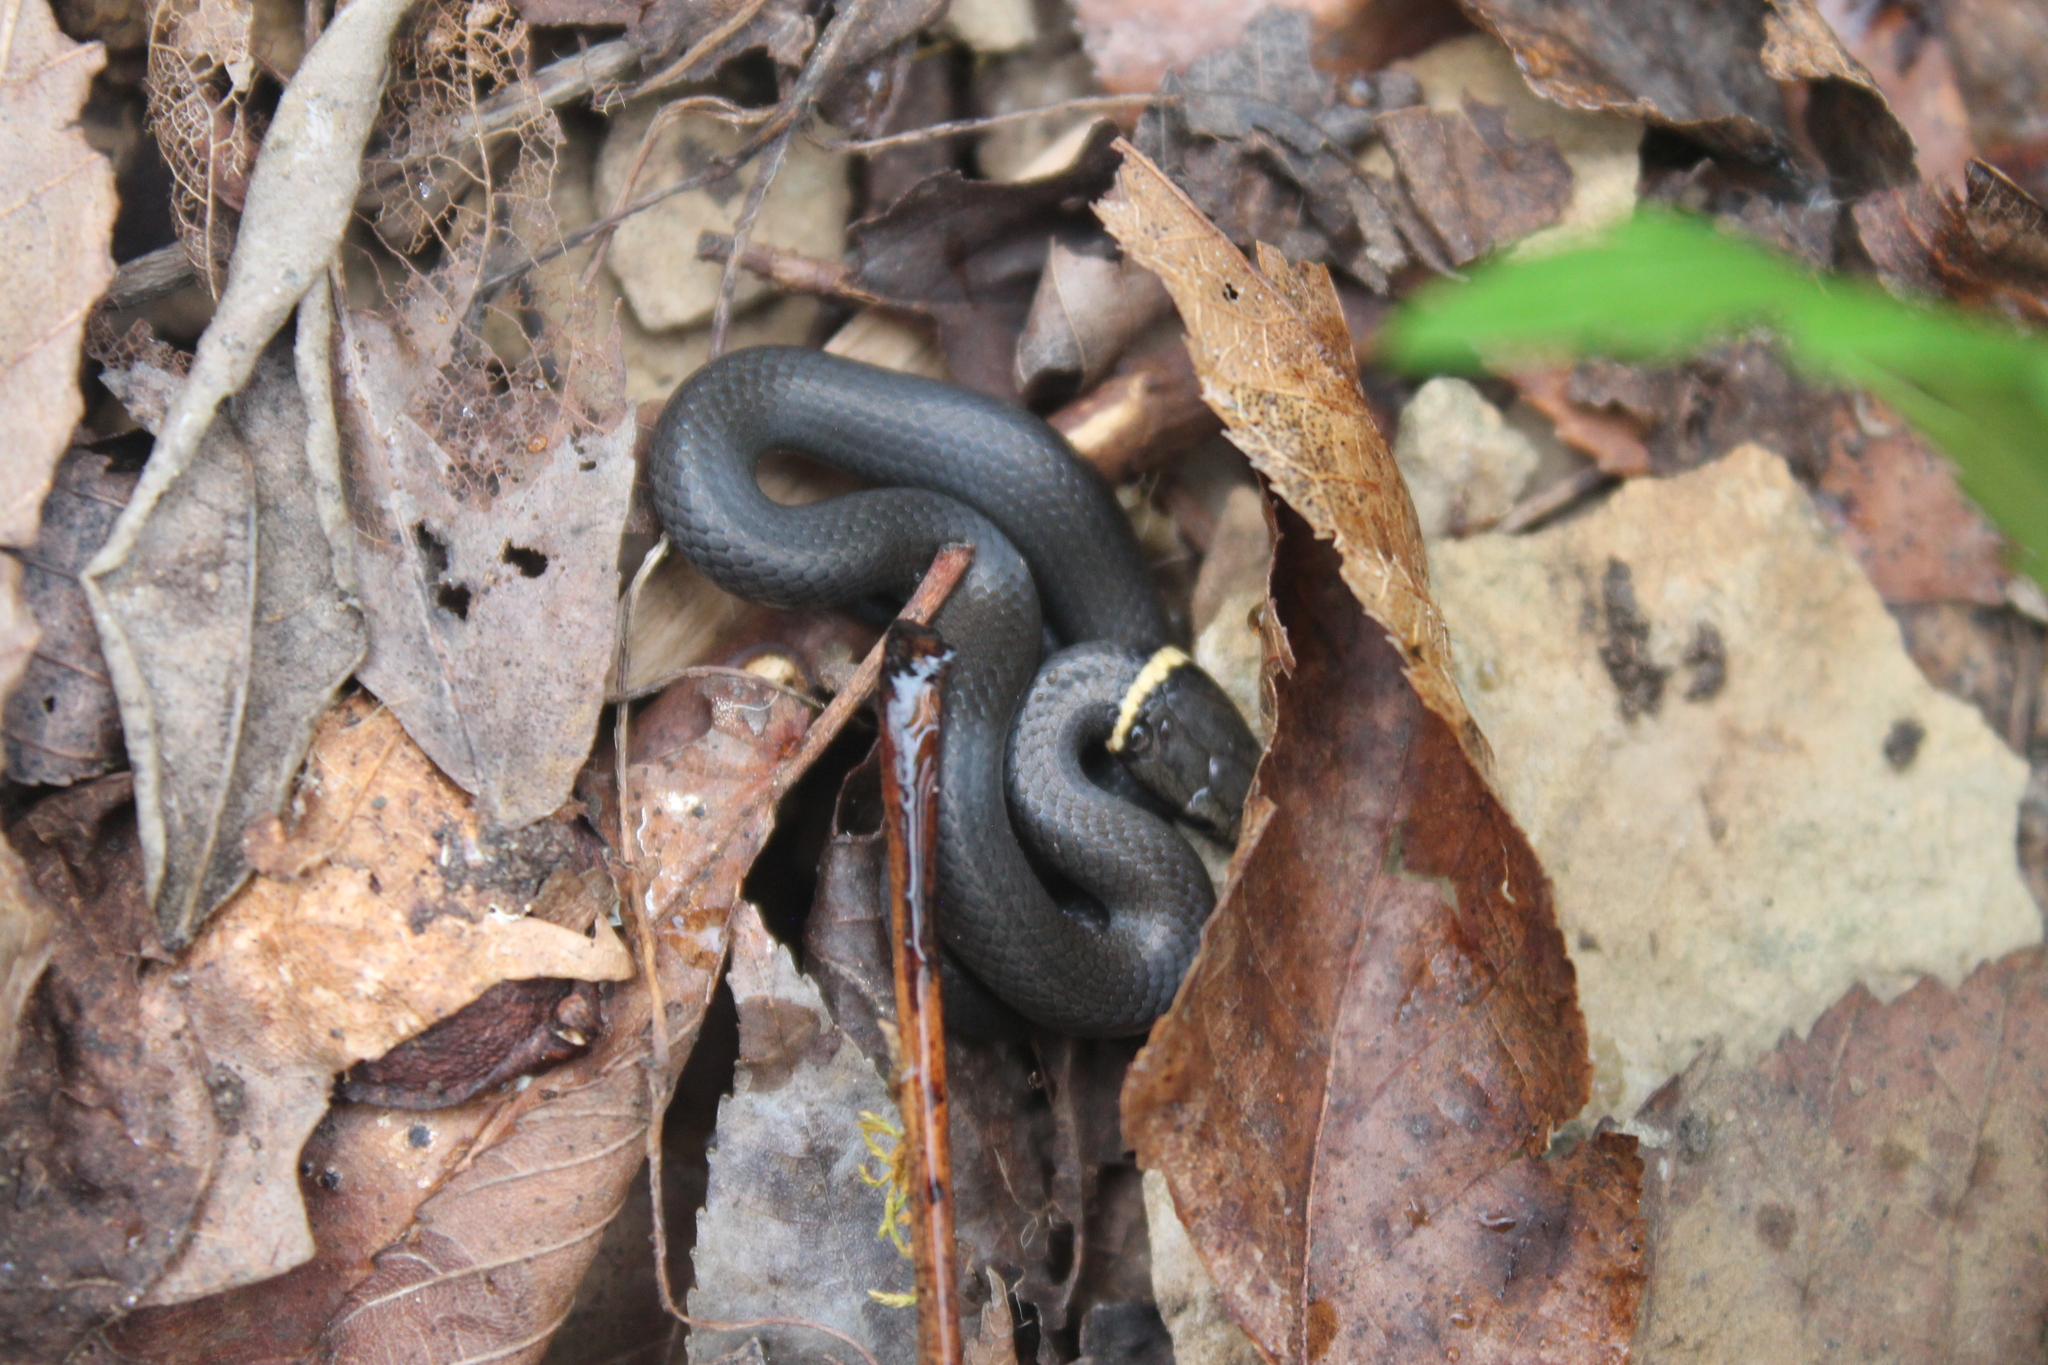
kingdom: Animalia
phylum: Chordata
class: Squamata
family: Colubridae
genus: Diadophis
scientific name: Diadophis punctatus
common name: Ringneck snake
